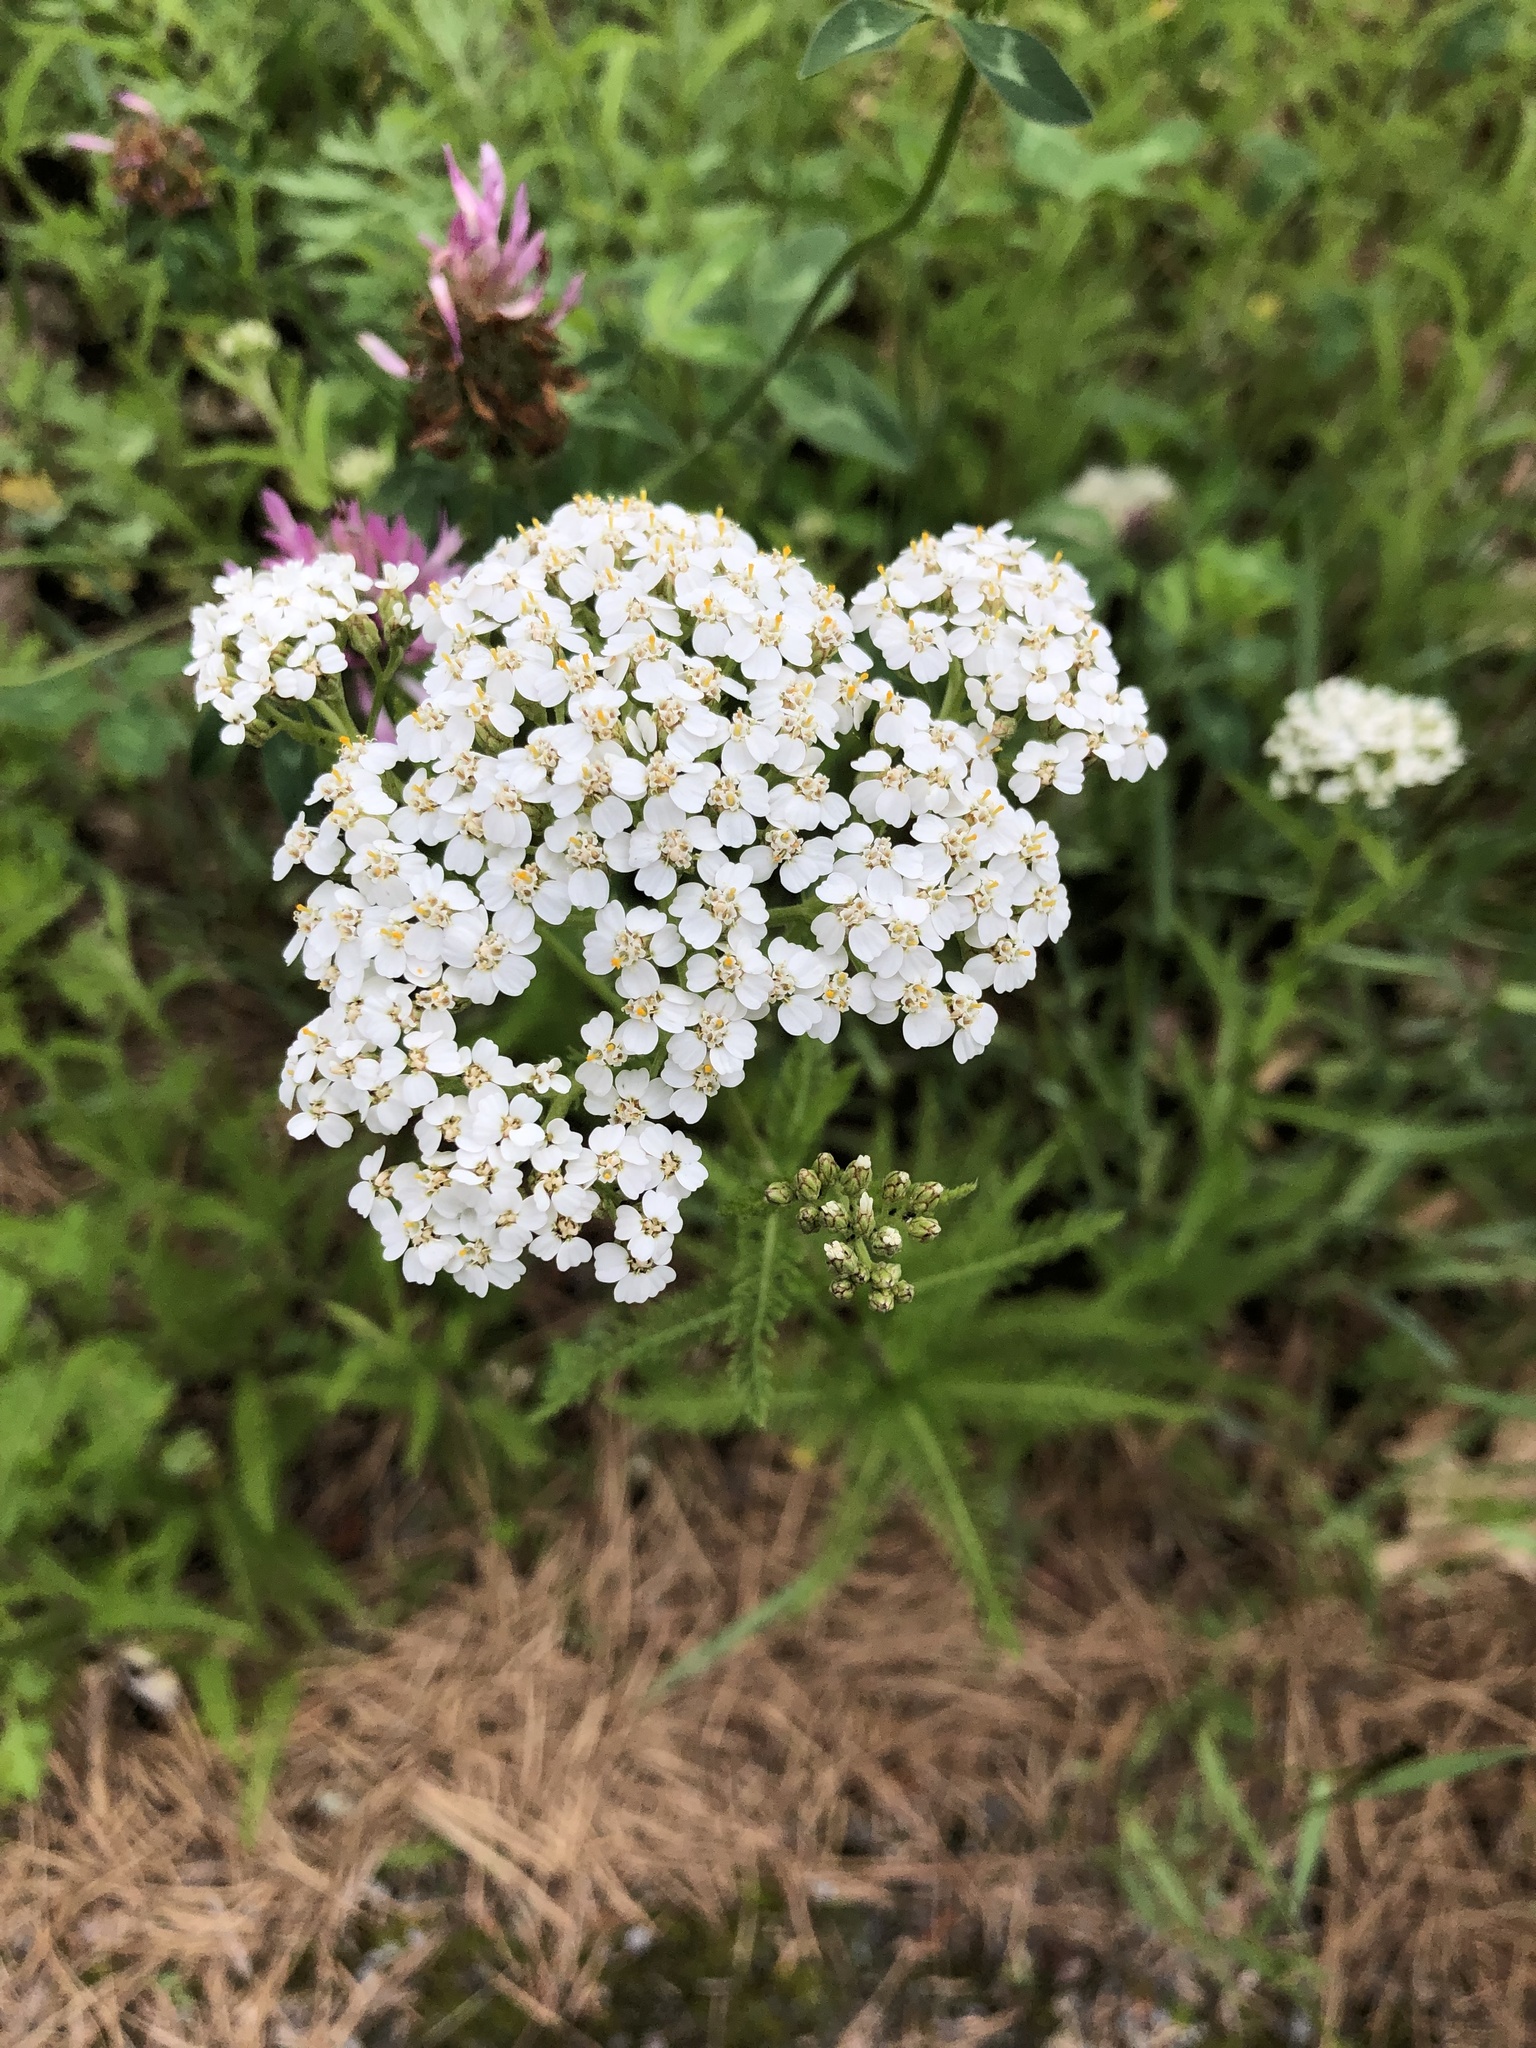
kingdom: Plantae
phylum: Tracheophyta
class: Magnoliopsida
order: Asterales
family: Asteraceae
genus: Achillea
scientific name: Achillea millefolium
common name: Yarrow
